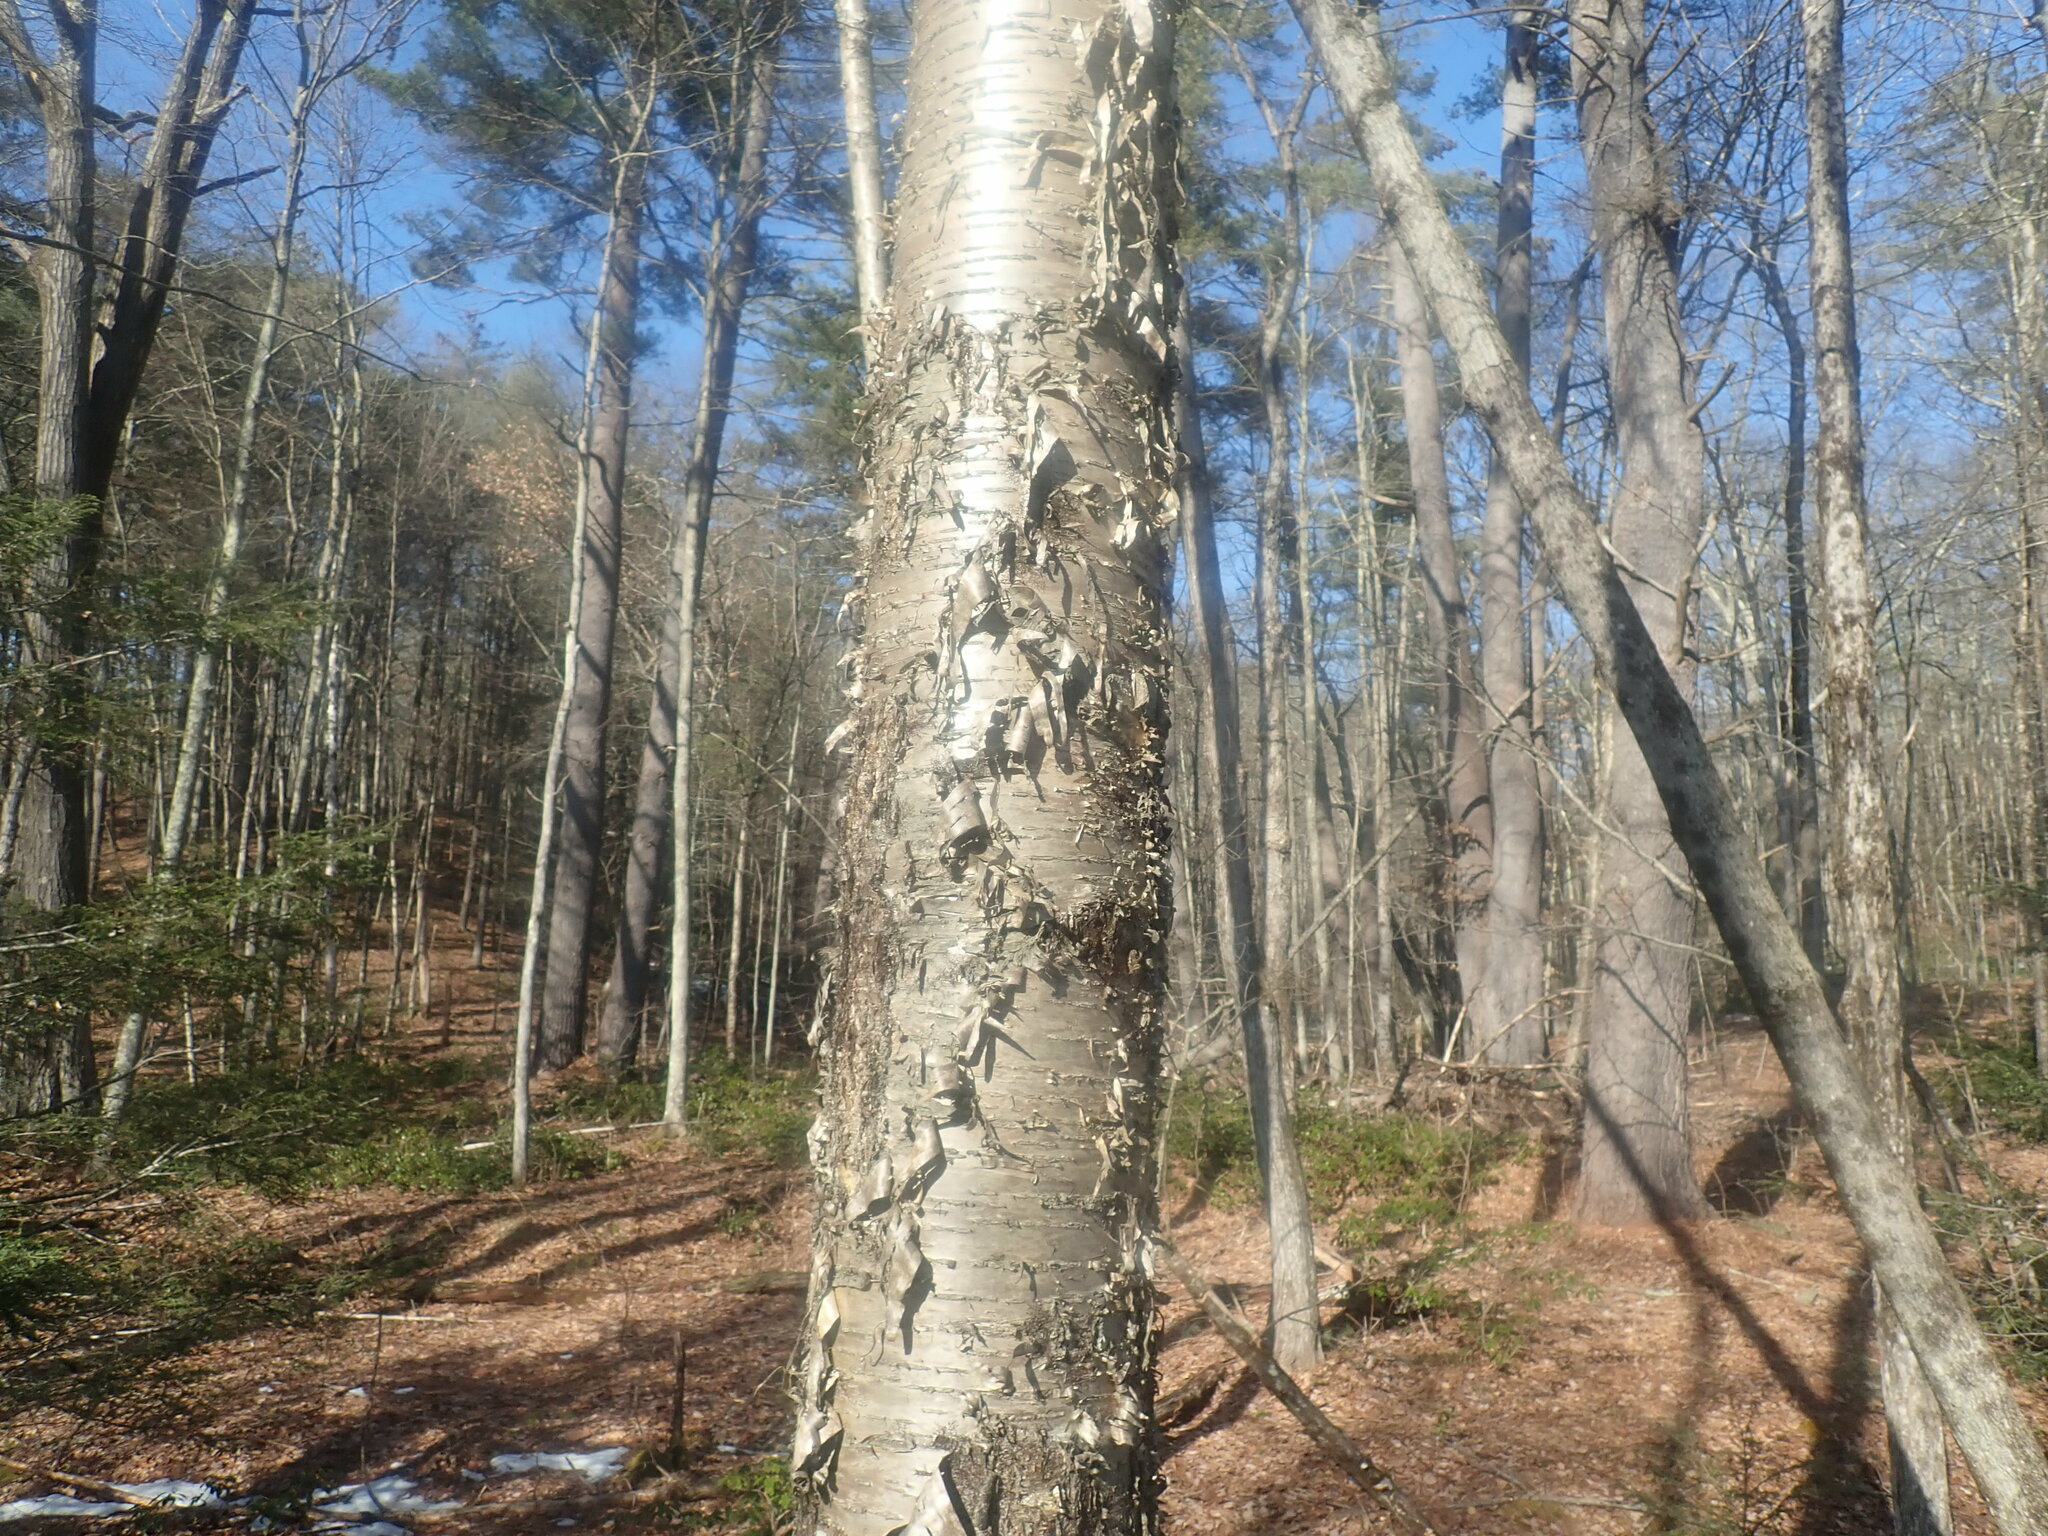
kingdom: Plantae
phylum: Tracheophyta
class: Magnoliopsida
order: Fagales
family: Betulaceae
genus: Betula
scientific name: Betula alleghaniensis
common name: Yellow birch
